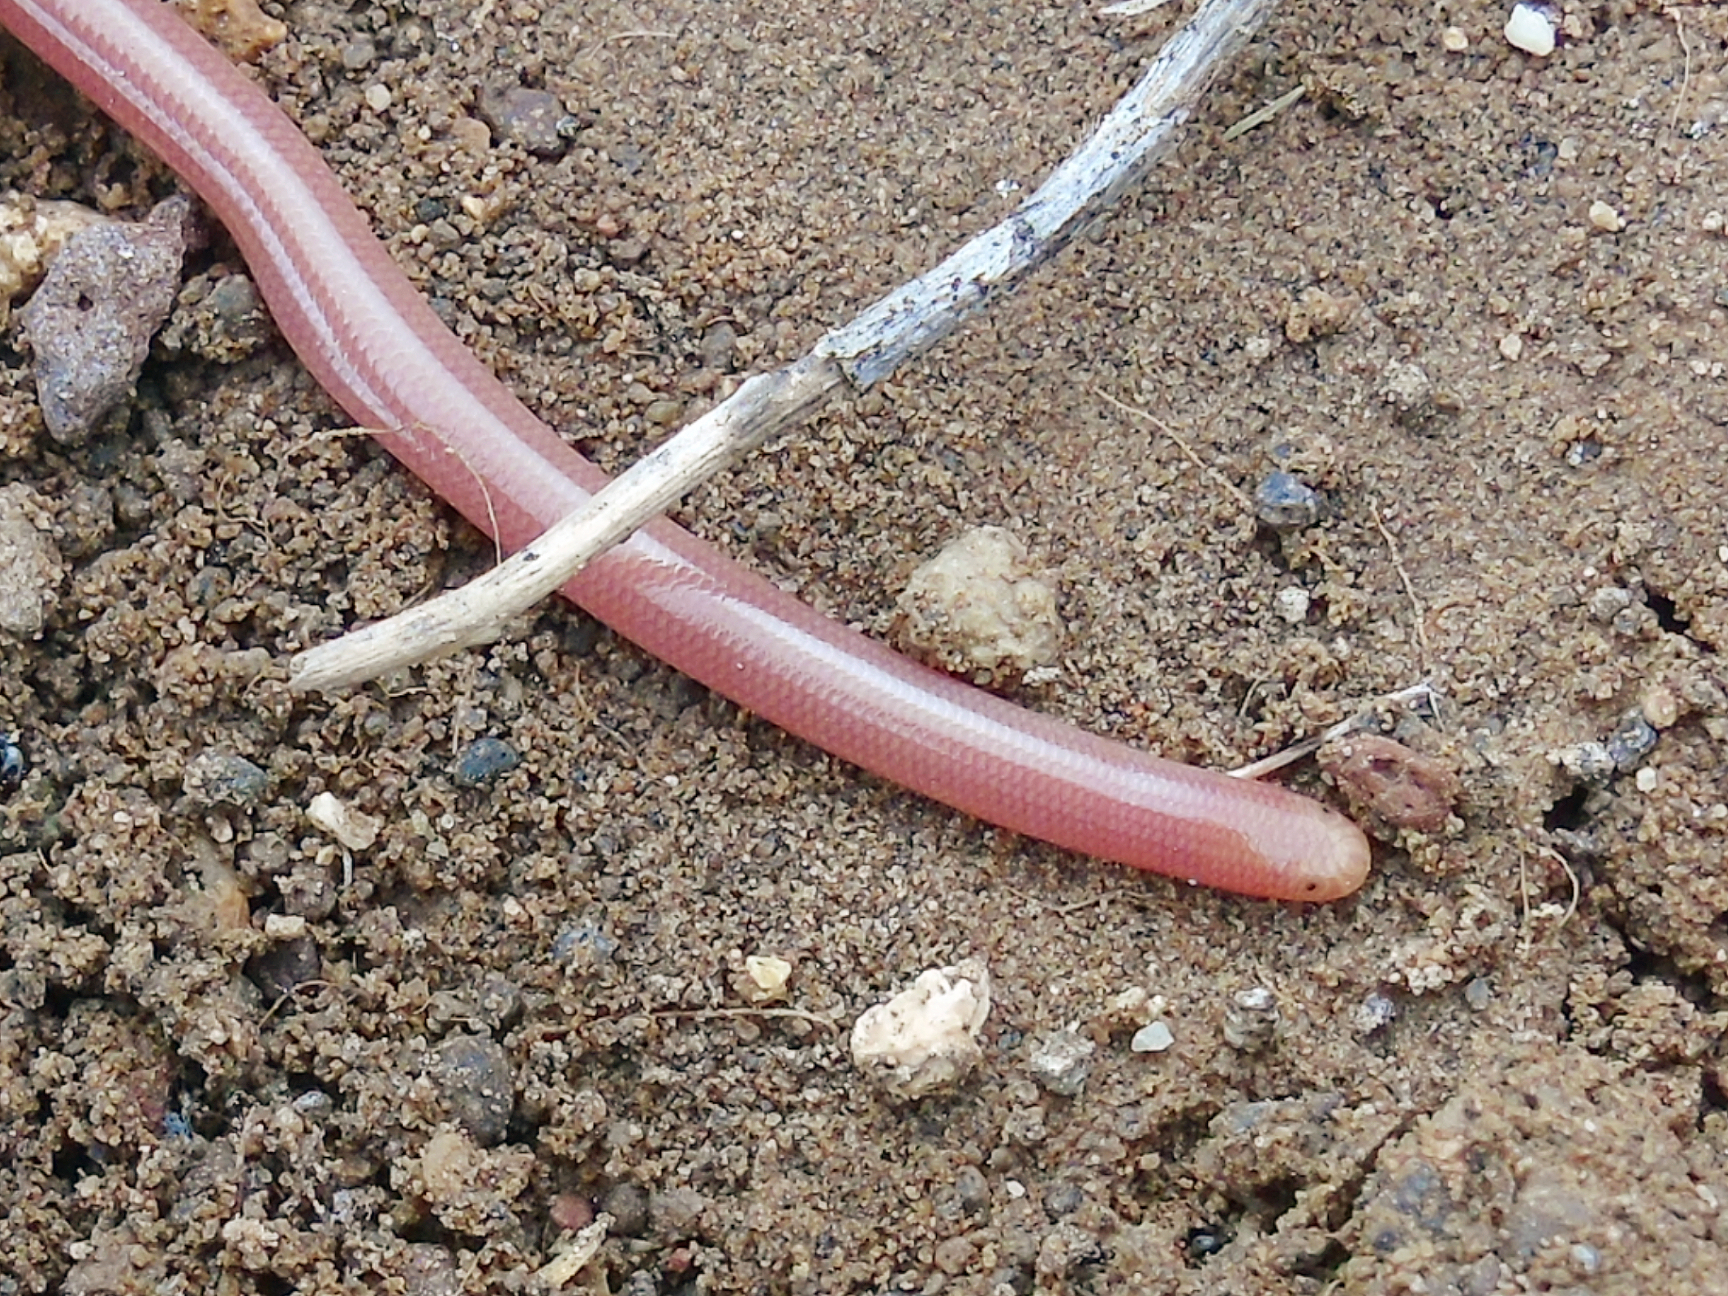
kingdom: Animalia
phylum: Chordata
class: Squamata
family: Typhlopidae
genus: Xerotyphlops
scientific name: Xerotyphlops vermicularis
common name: Eurasian blind snake
